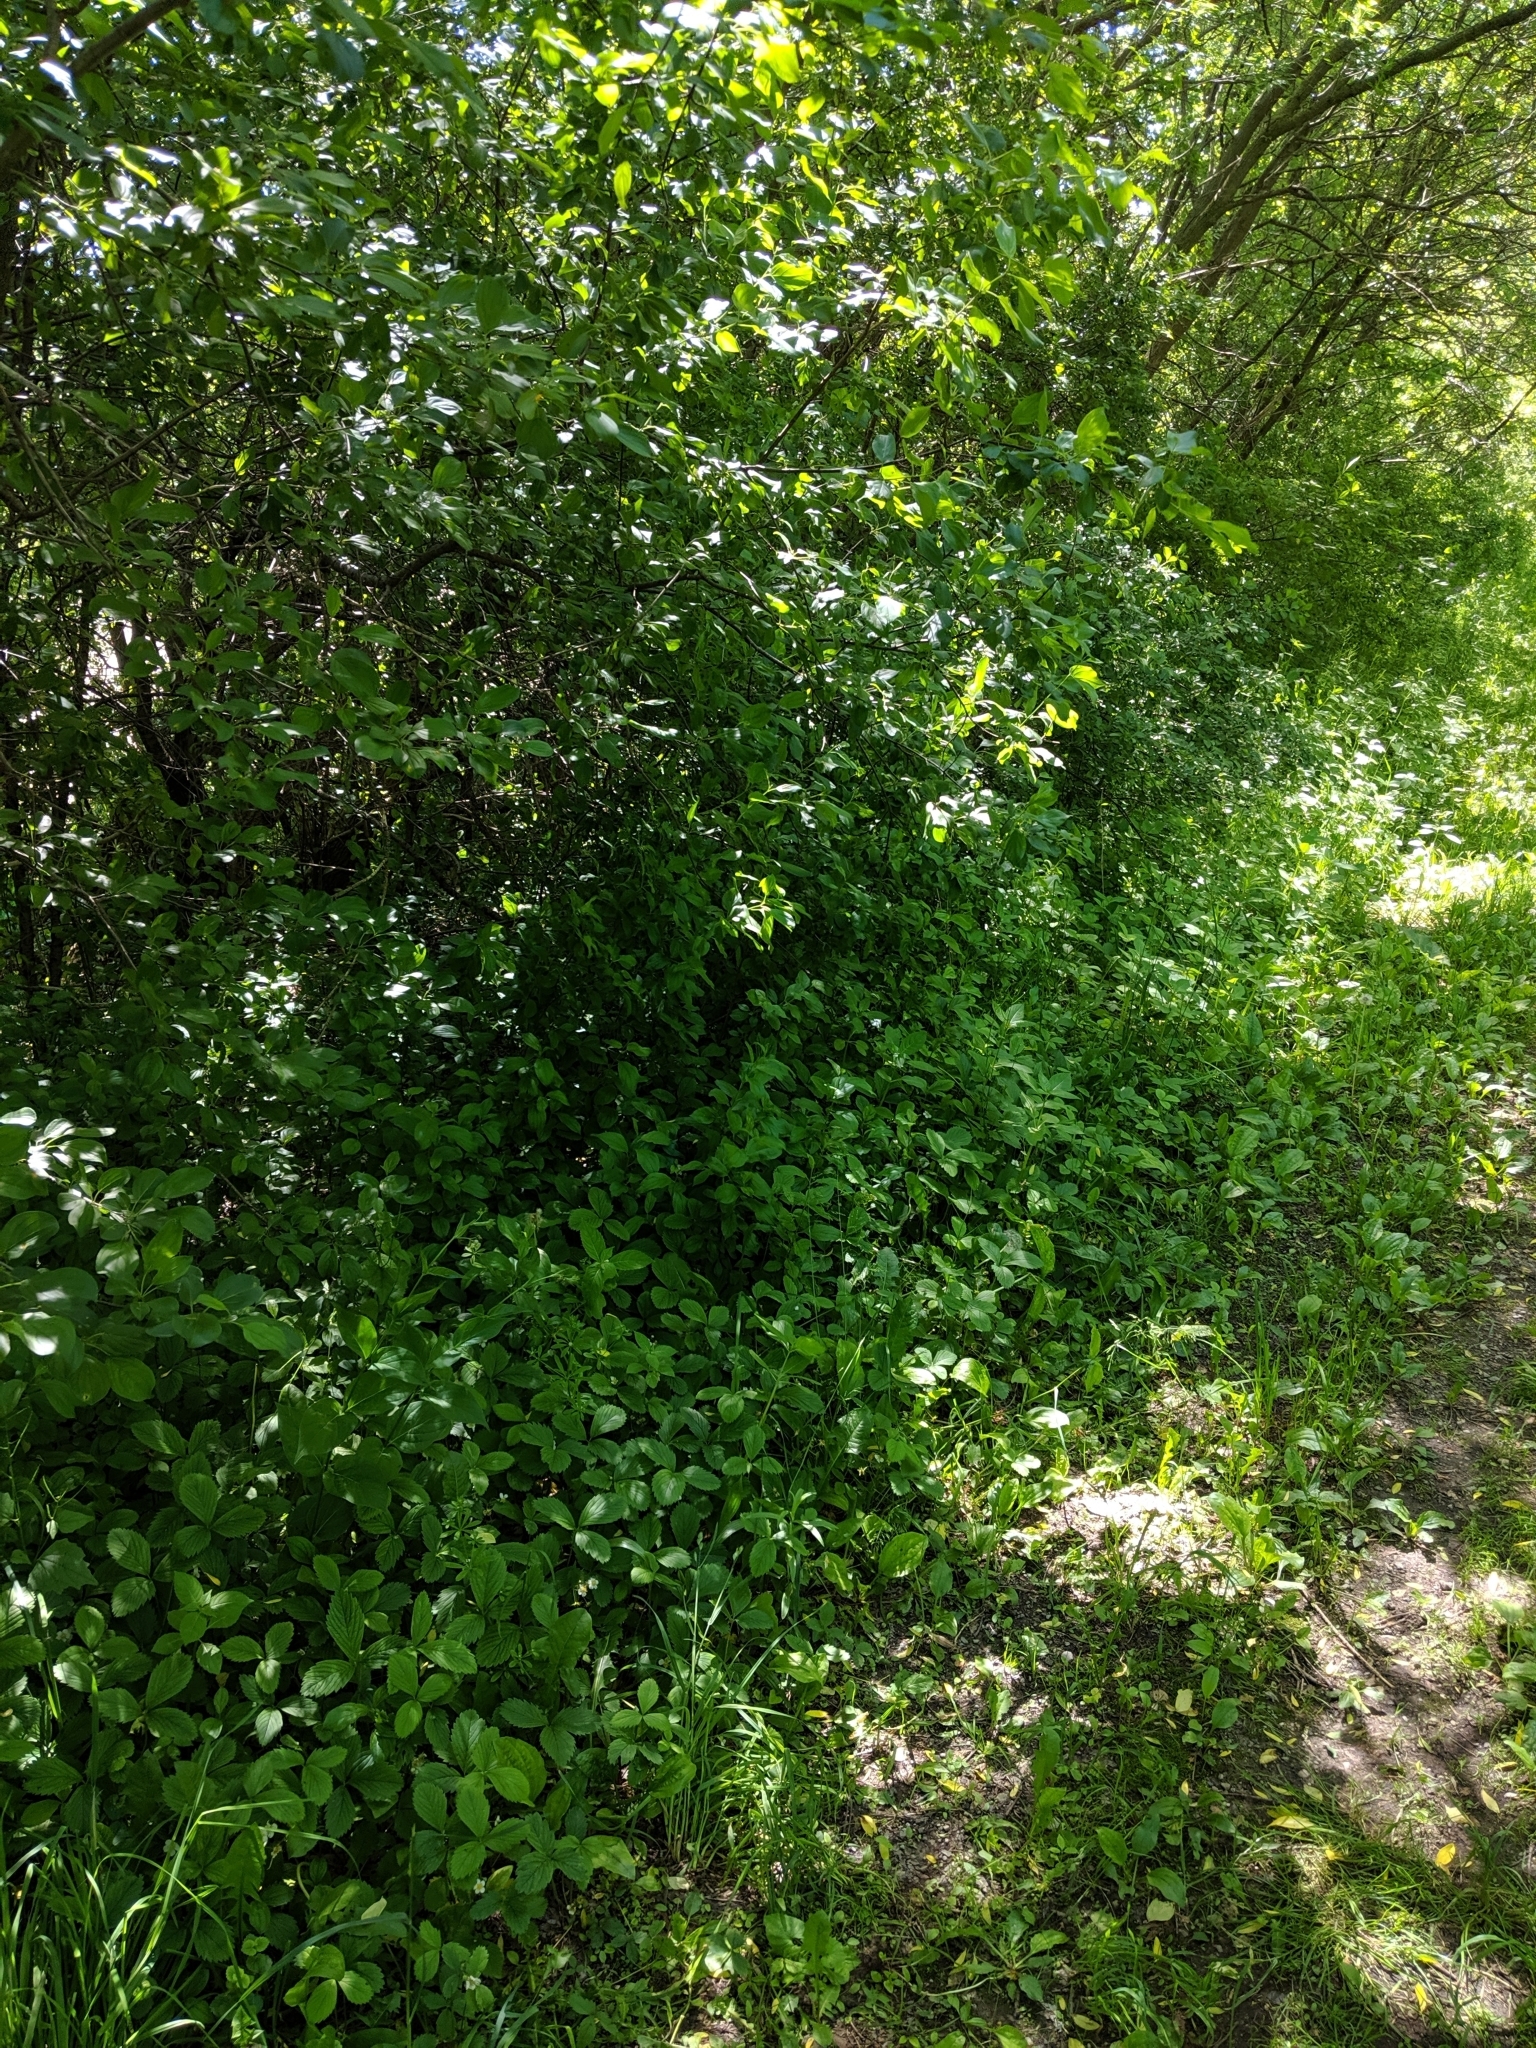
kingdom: Plantae
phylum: Tracheophyta
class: Magnoliopsida
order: Gentianales
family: Apocynaceae
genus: Vincetoxicum
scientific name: Vincetoxicum rossicum
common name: Dog-strangling vine
